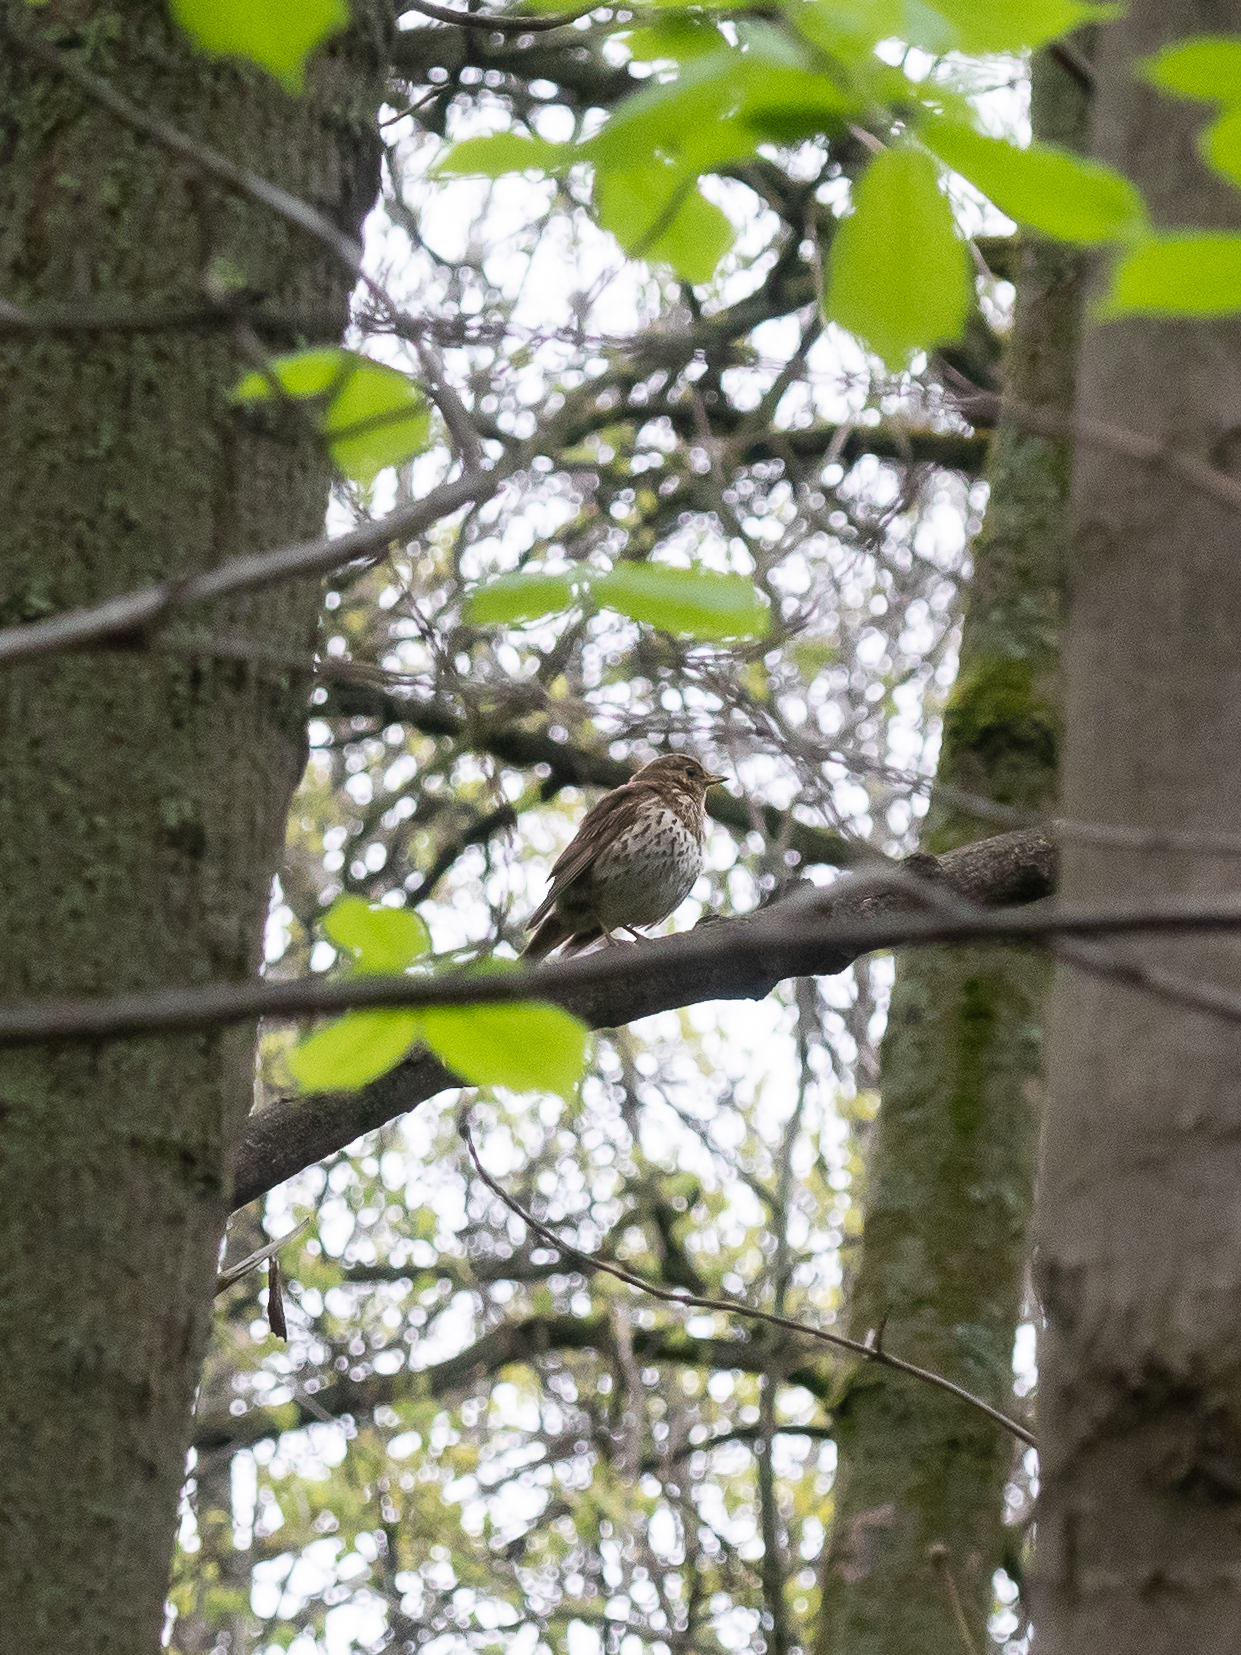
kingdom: Animalia
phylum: Chordata
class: Aves
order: Passeriformes
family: Turdidae
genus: Turdus
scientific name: Turdus philomelos
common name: Song thrush
